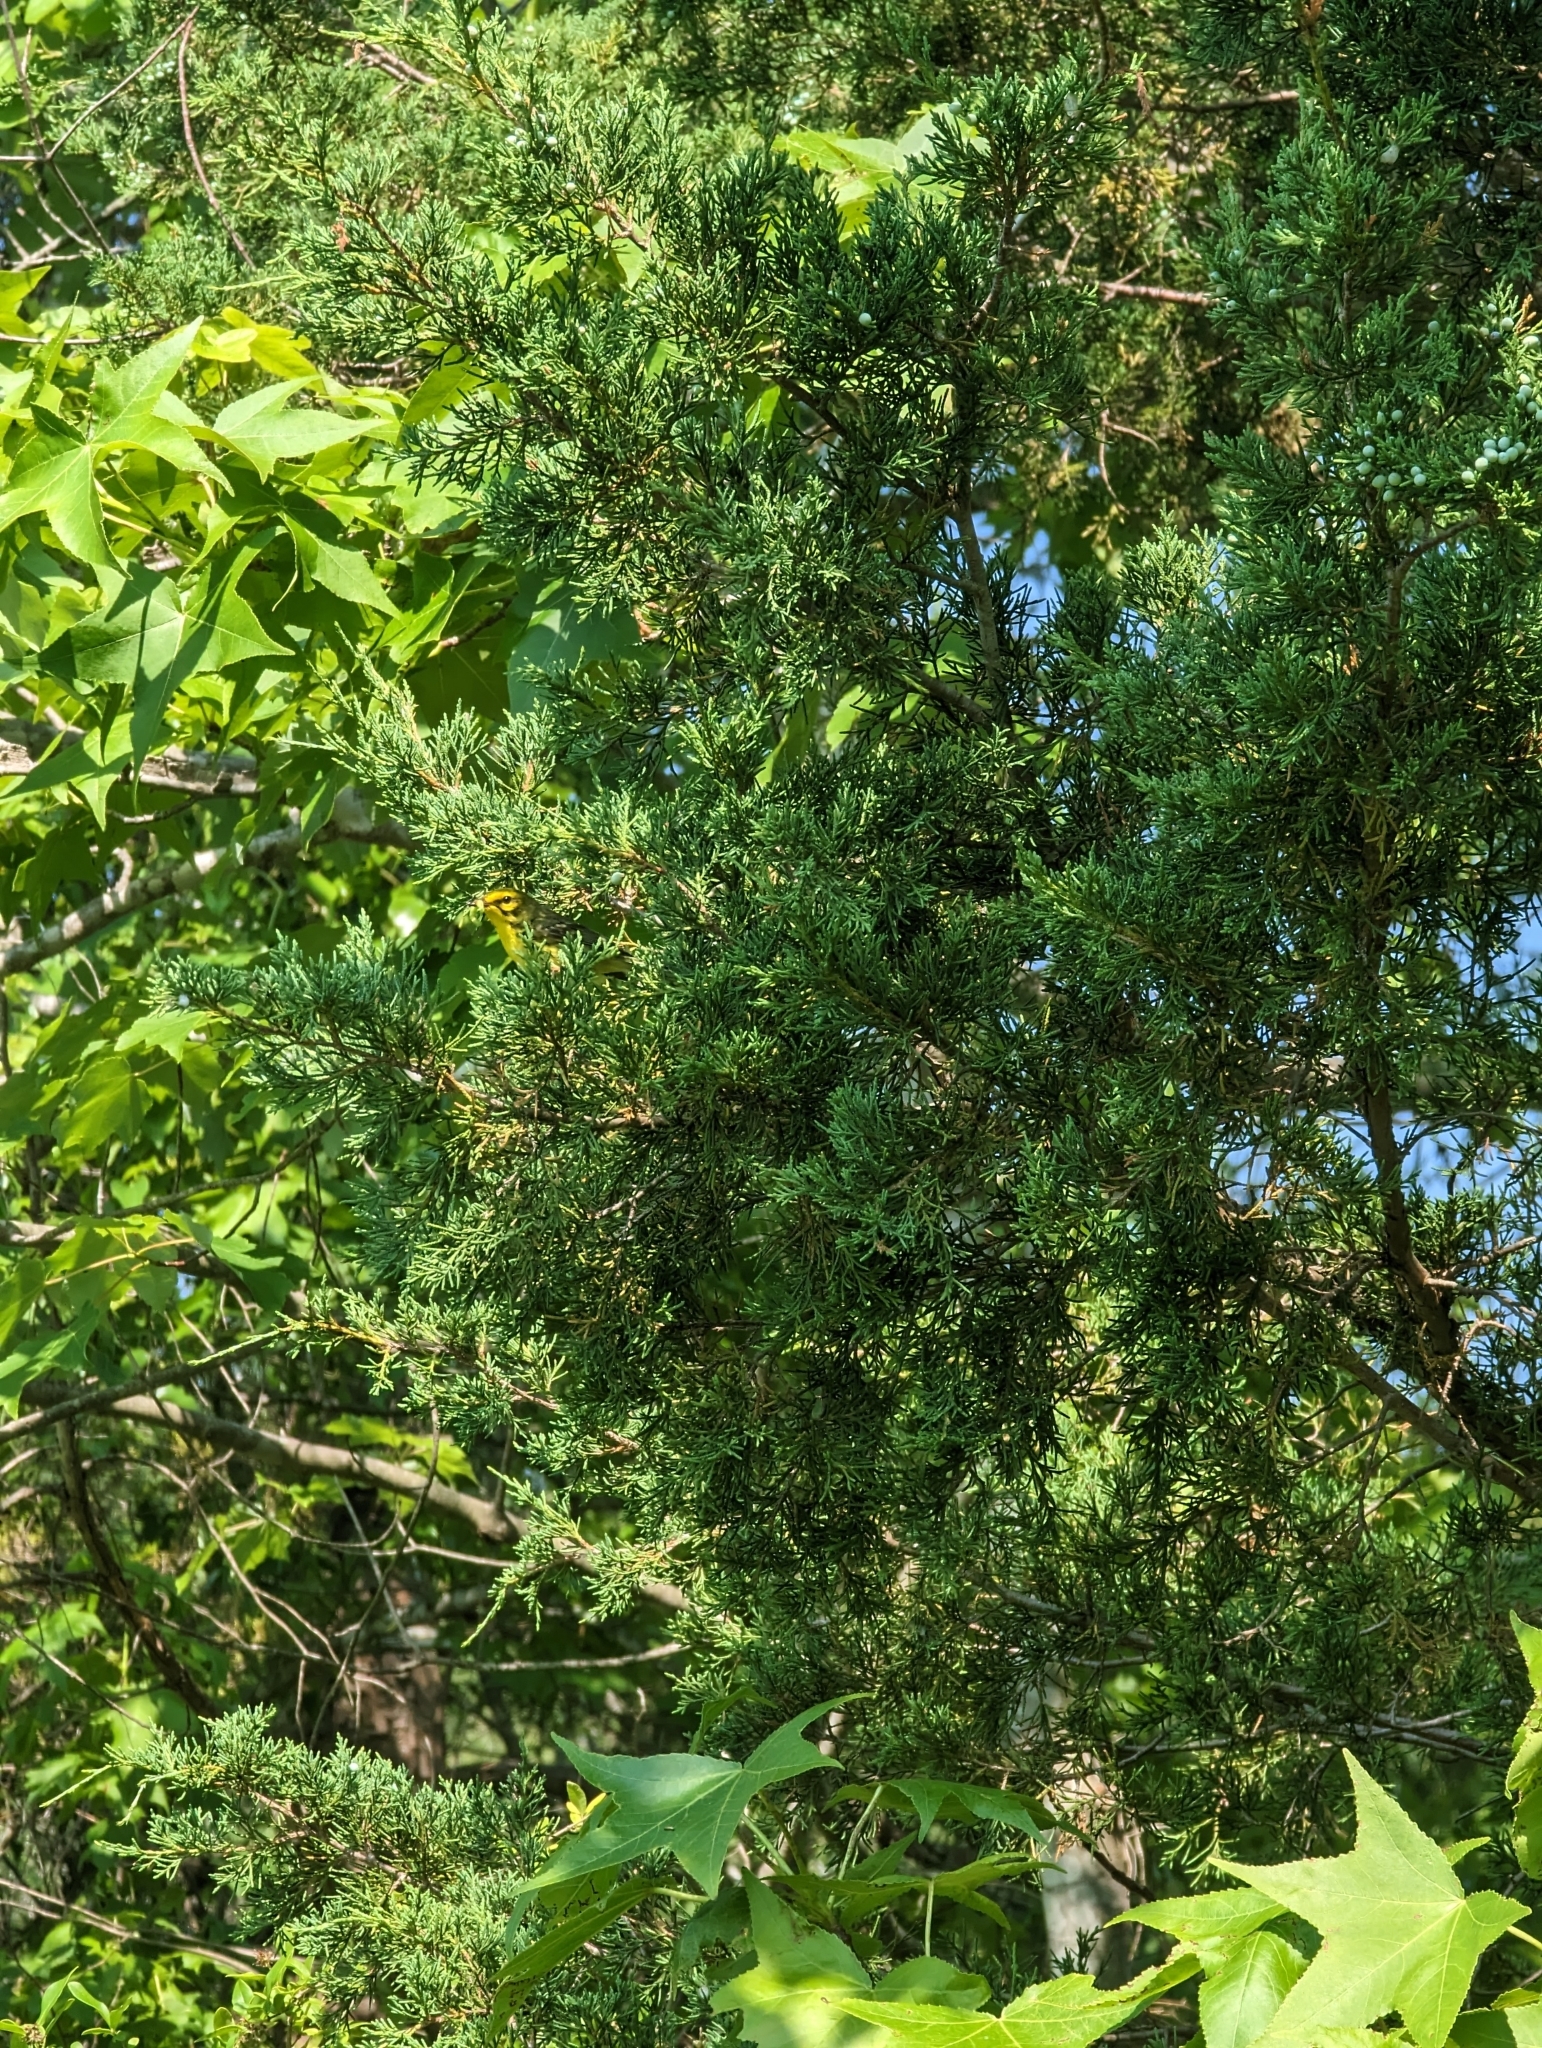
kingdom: Animalia
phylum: Chordata
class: Aves
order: Passeriformes
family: Parulidae
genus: Setophaga
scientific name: Setophaga discolor
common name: Prairie warbler
